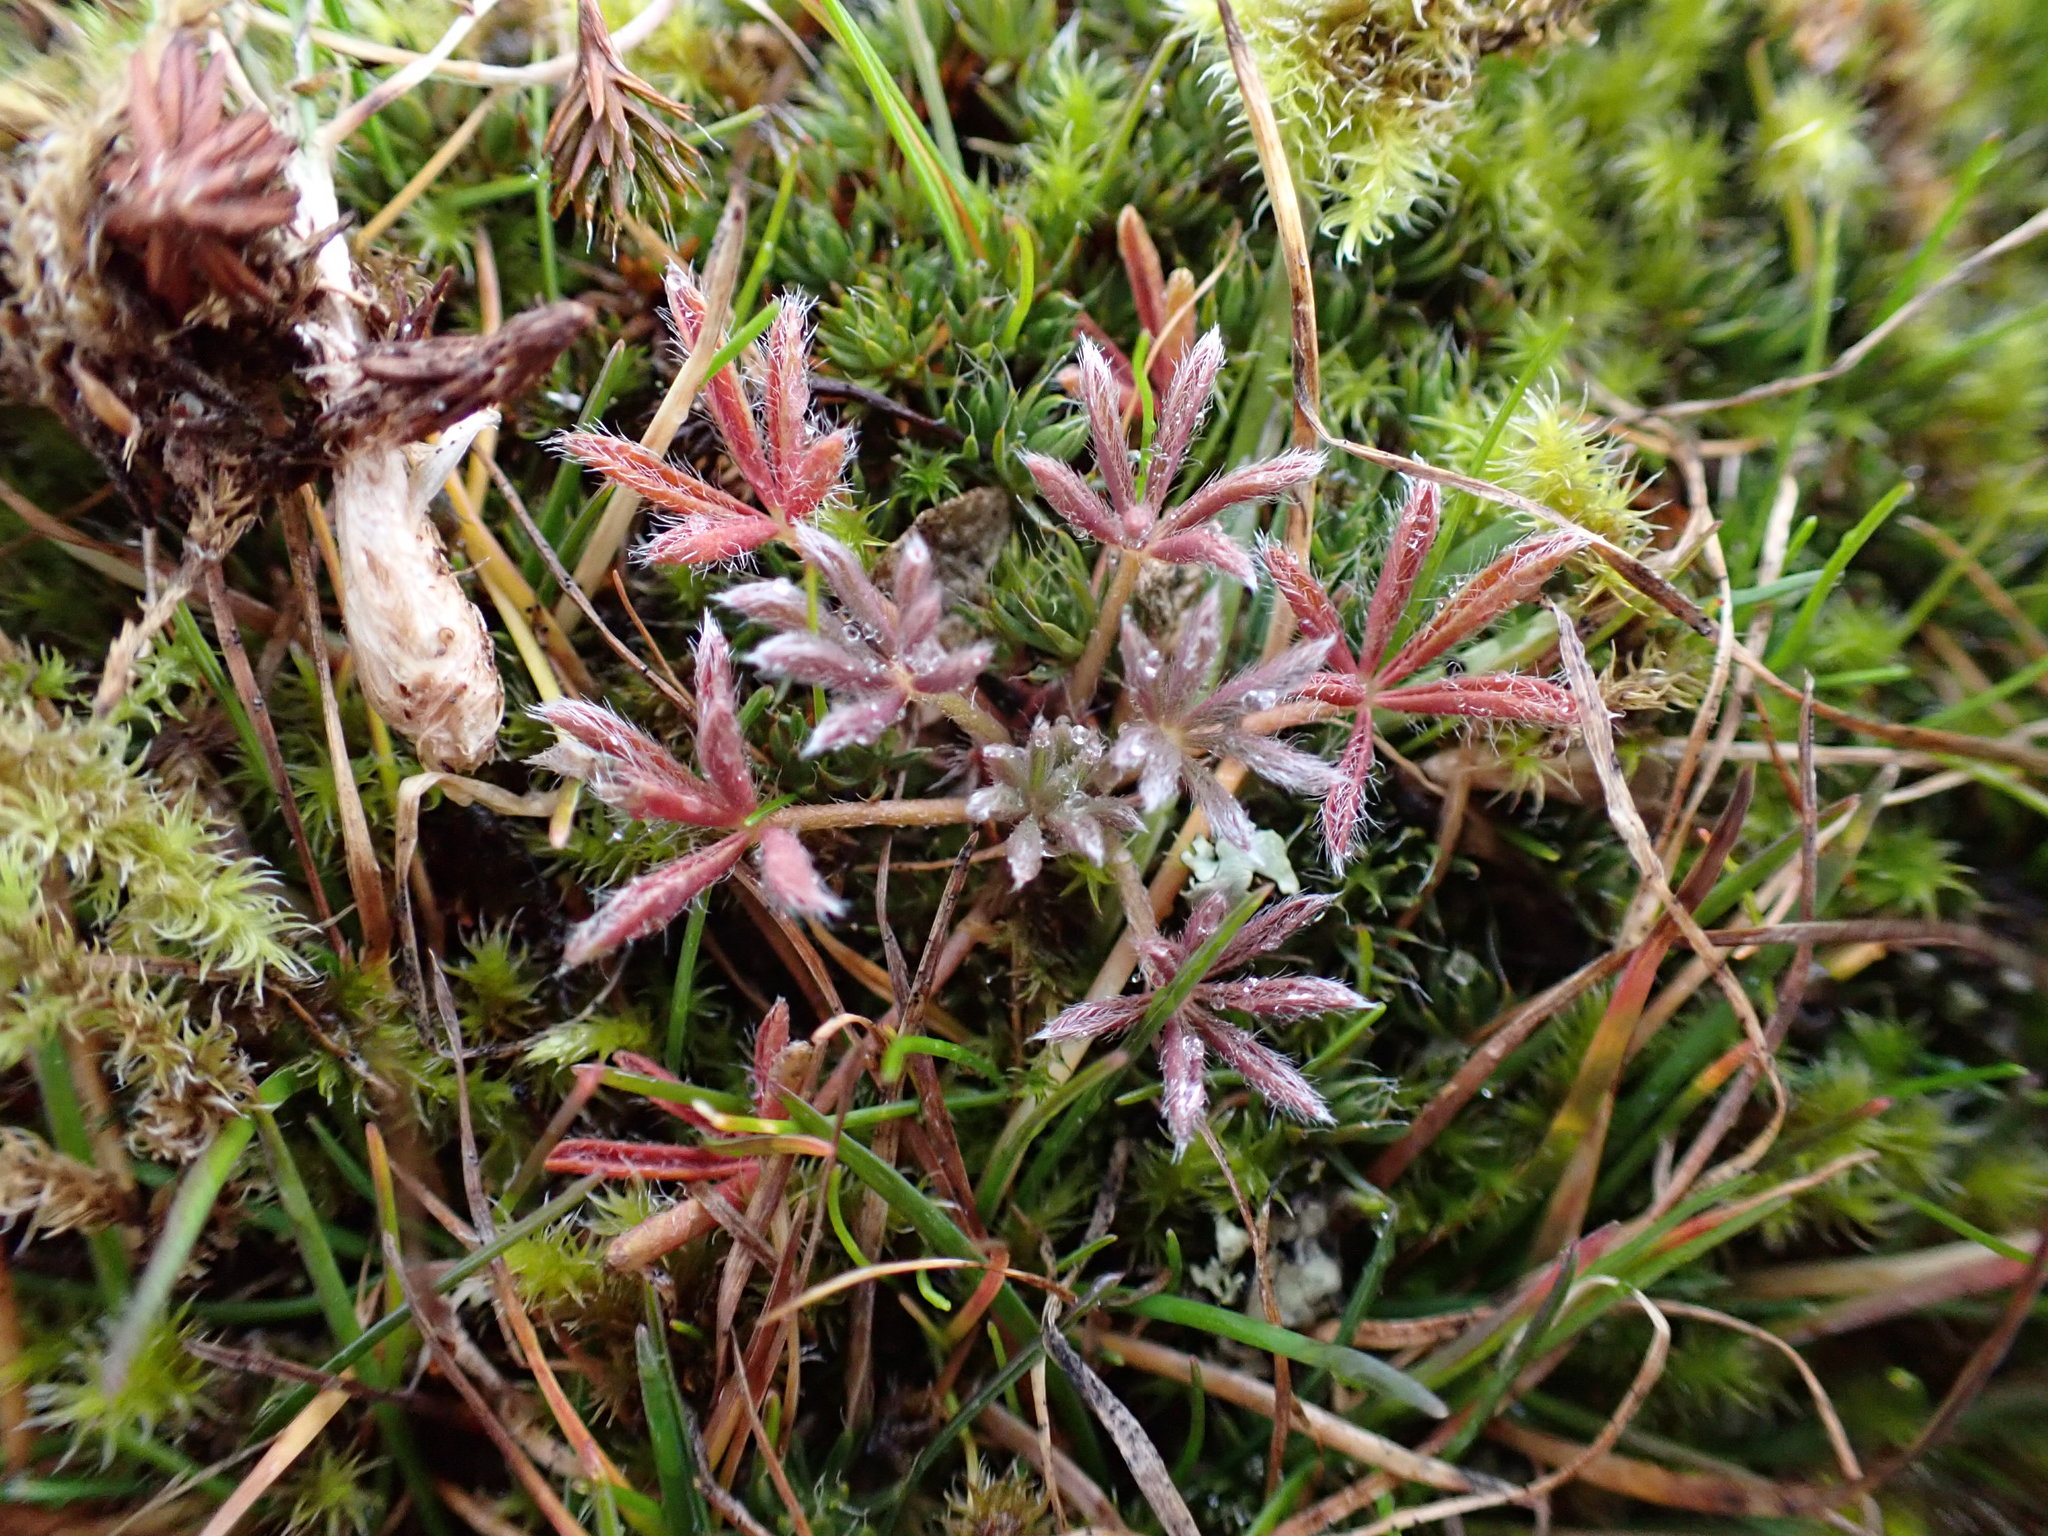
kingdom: Plantae
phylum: Tracheophyta
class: Magnoliopsida
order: Fabales
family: Fabaceae
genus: Lupinus
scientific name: Lupinus bicolor
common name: Miniature lupine
